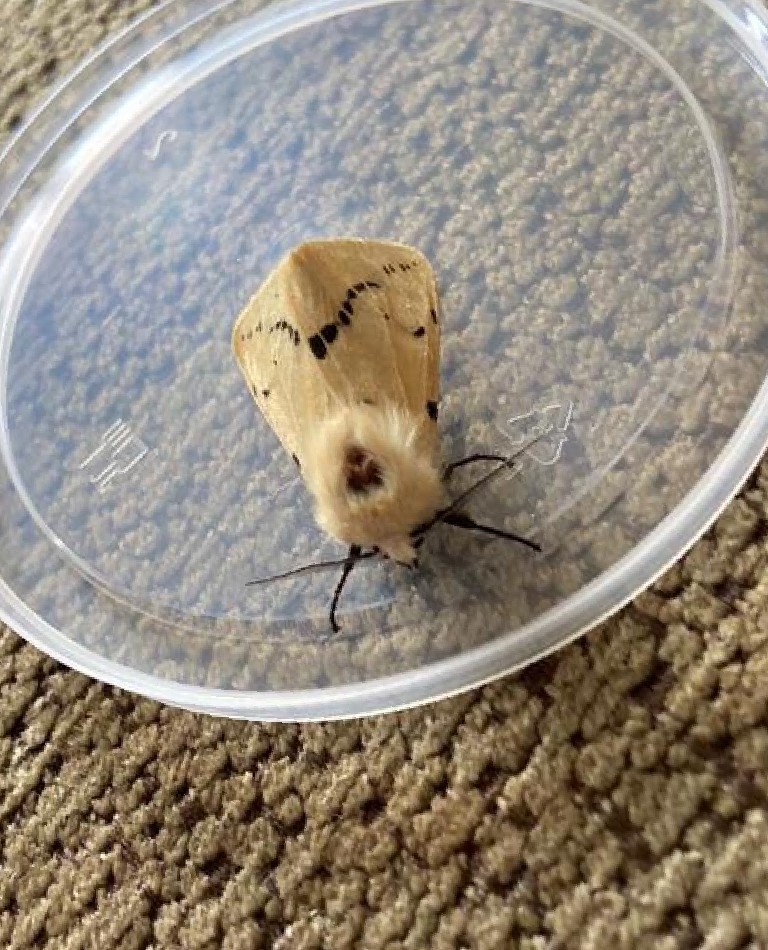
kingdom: Animalia
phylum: Arthropoda
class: Insecta
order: Lepidoptera
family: Erebidae
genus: Spilarctia
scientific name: Spilarctia lutea
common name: Buff ermine
